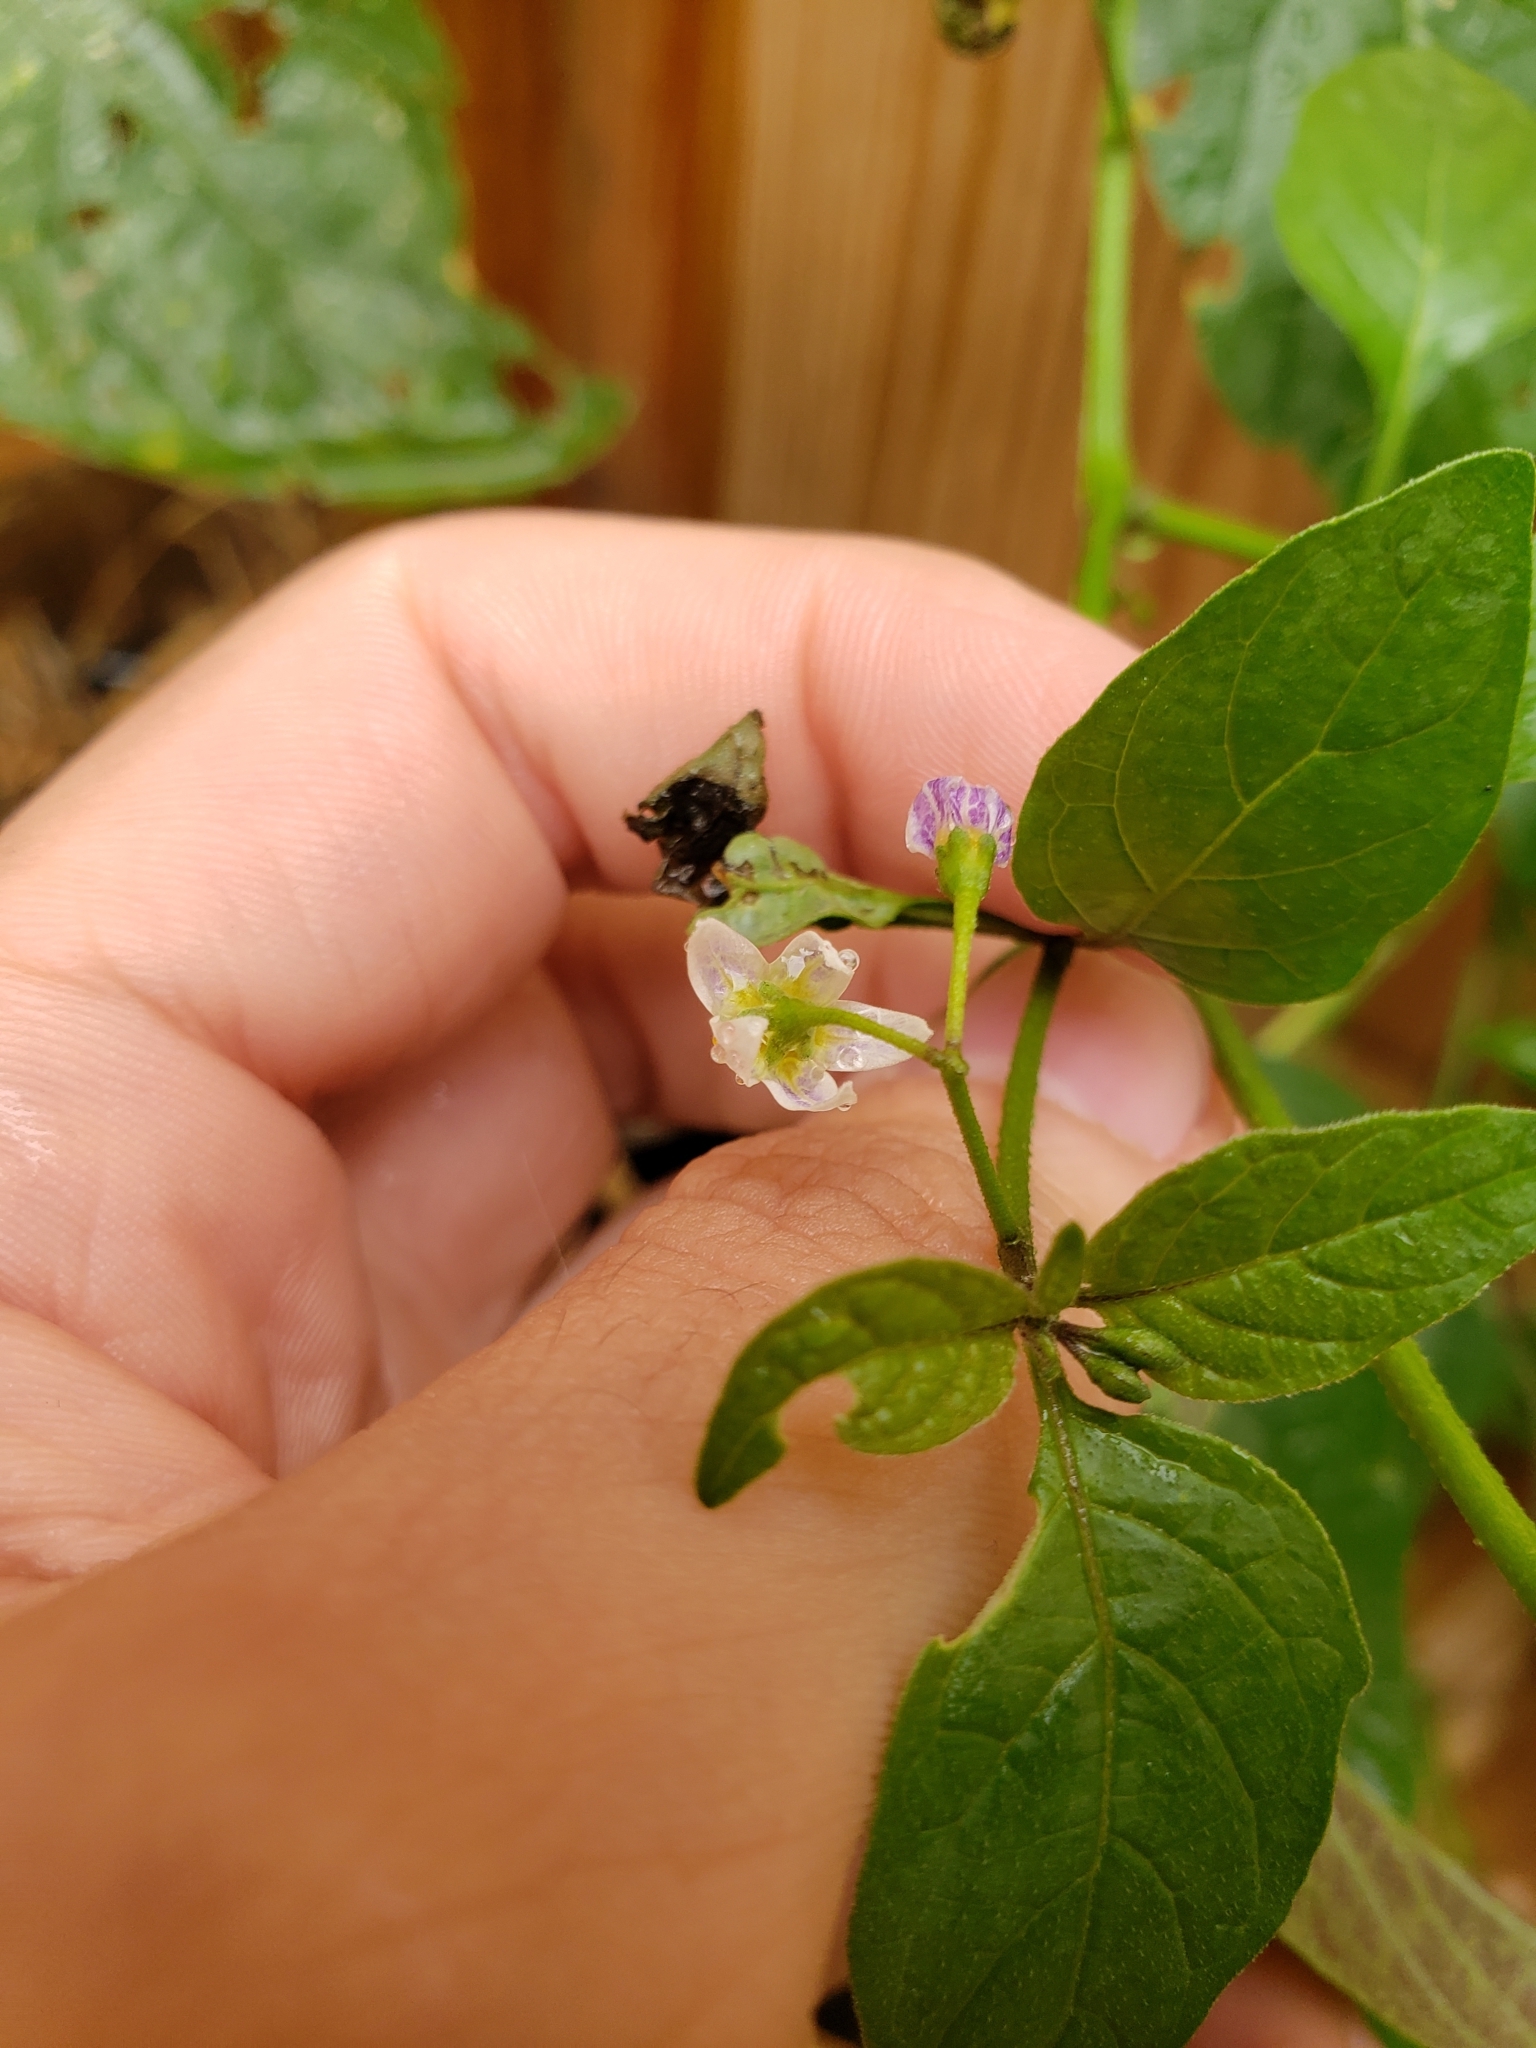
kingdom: Plantae
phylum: Tracheophyta
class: Magnoliopsida
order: Solanales
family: Solanaceae
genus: Solanum
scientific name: Solanum emulans
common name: Eastern black nightshade
